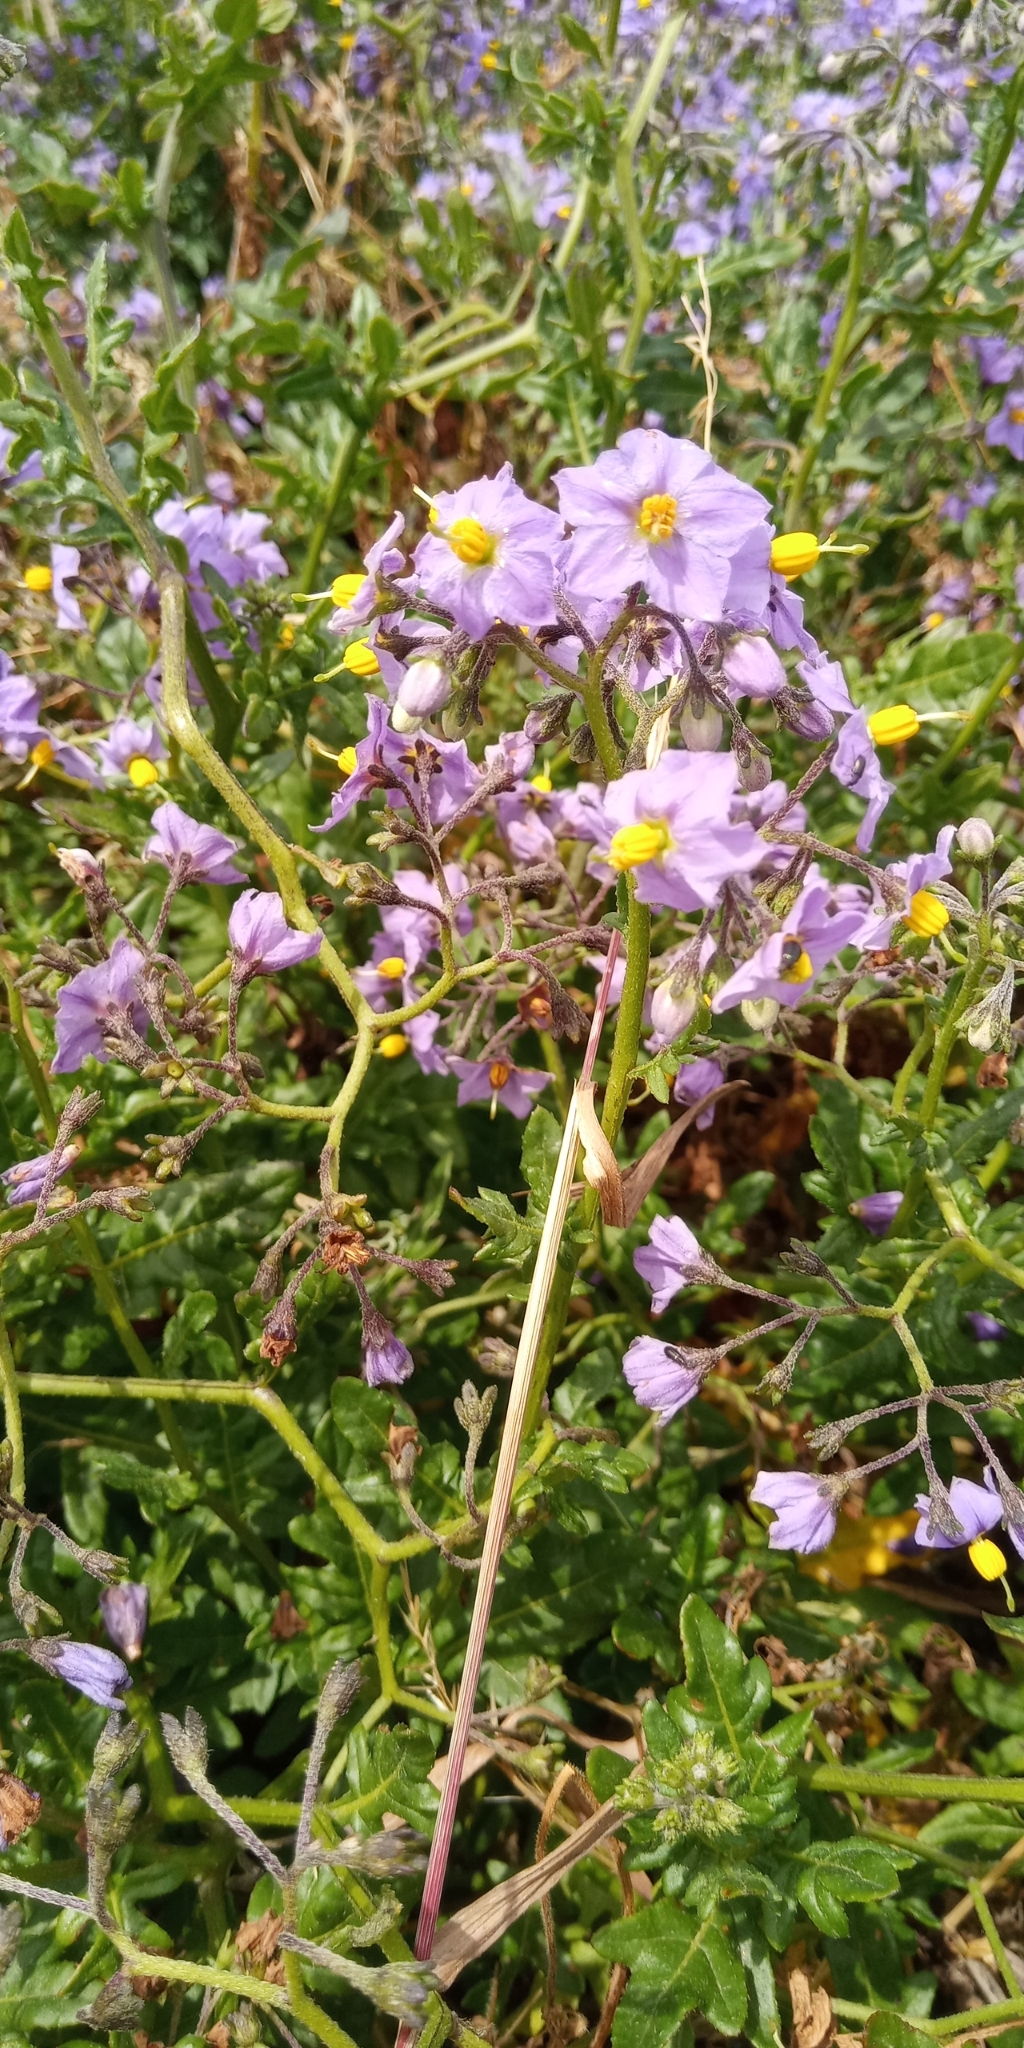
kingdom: Plantae
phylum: Tracheophyta
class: Magnoliopsida
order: Solanales
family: Solanaceae
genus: Solanum
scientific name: Solanum pinnatum
